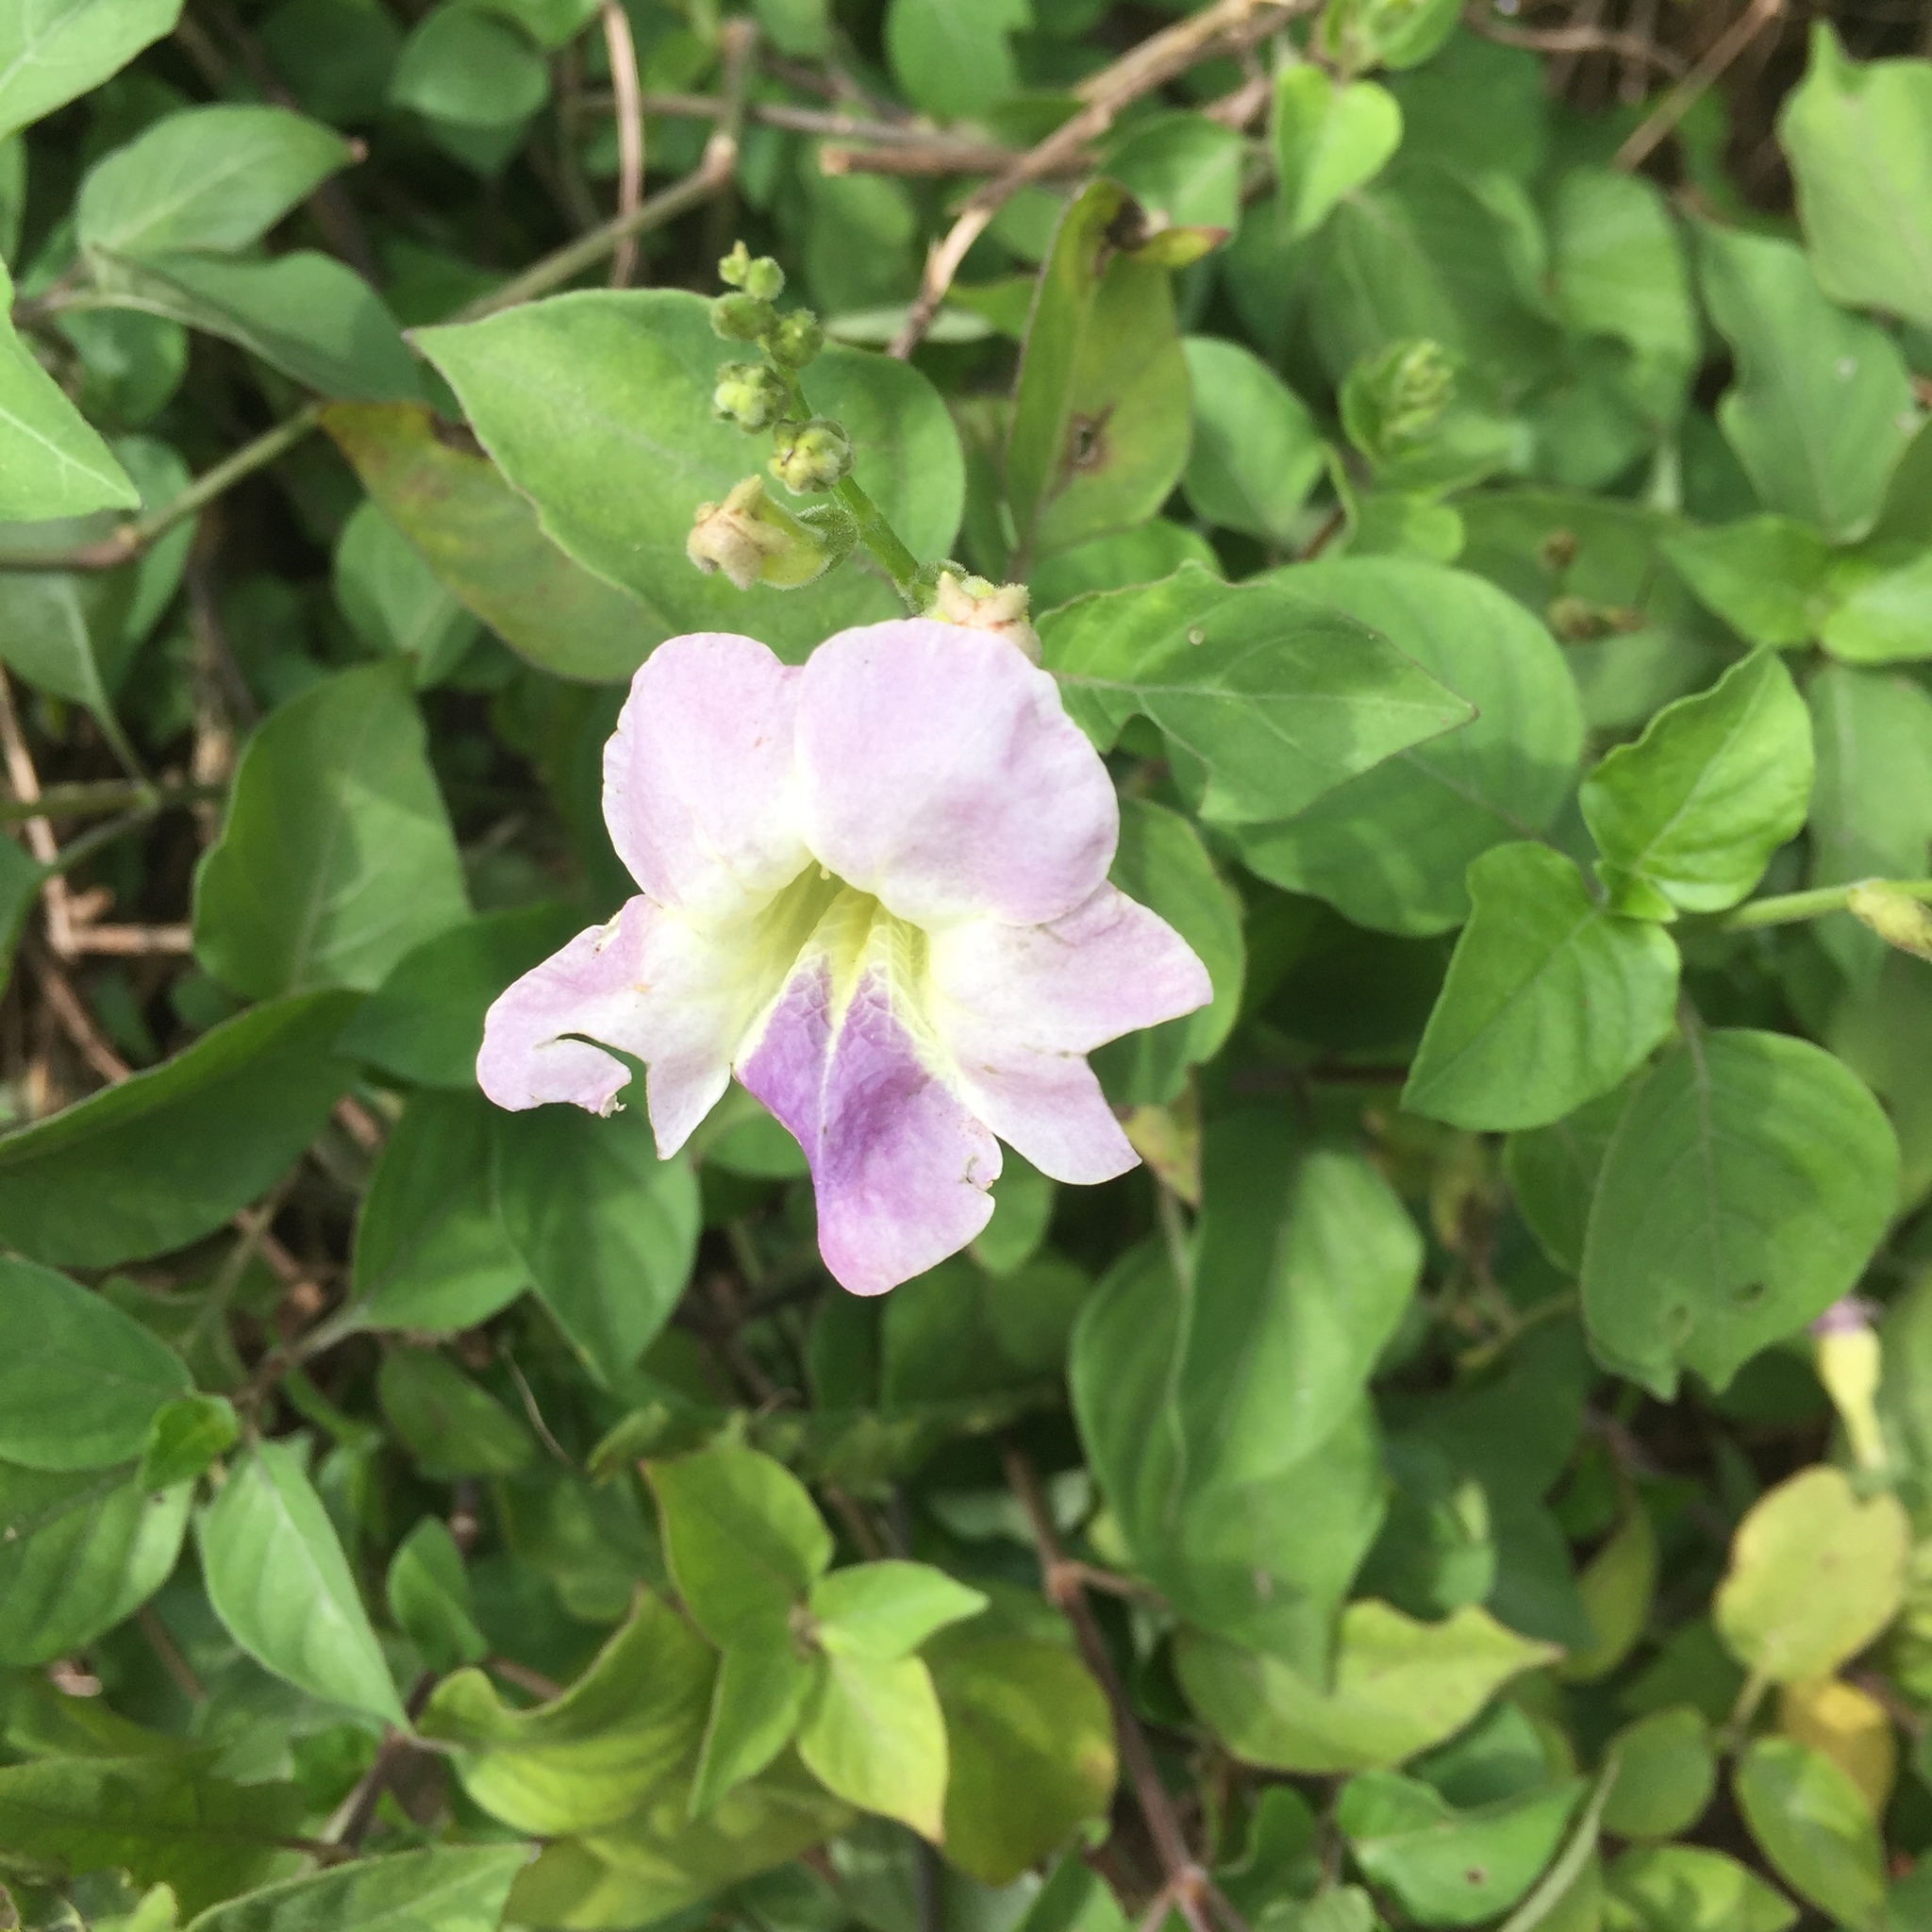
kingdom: Plantae
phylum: Tracheophyta
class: Magnoliopsida
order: Lamiales
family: Acanthaceae
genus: Asystasia
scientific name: Asystasia gangetica
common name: Chinese violet
